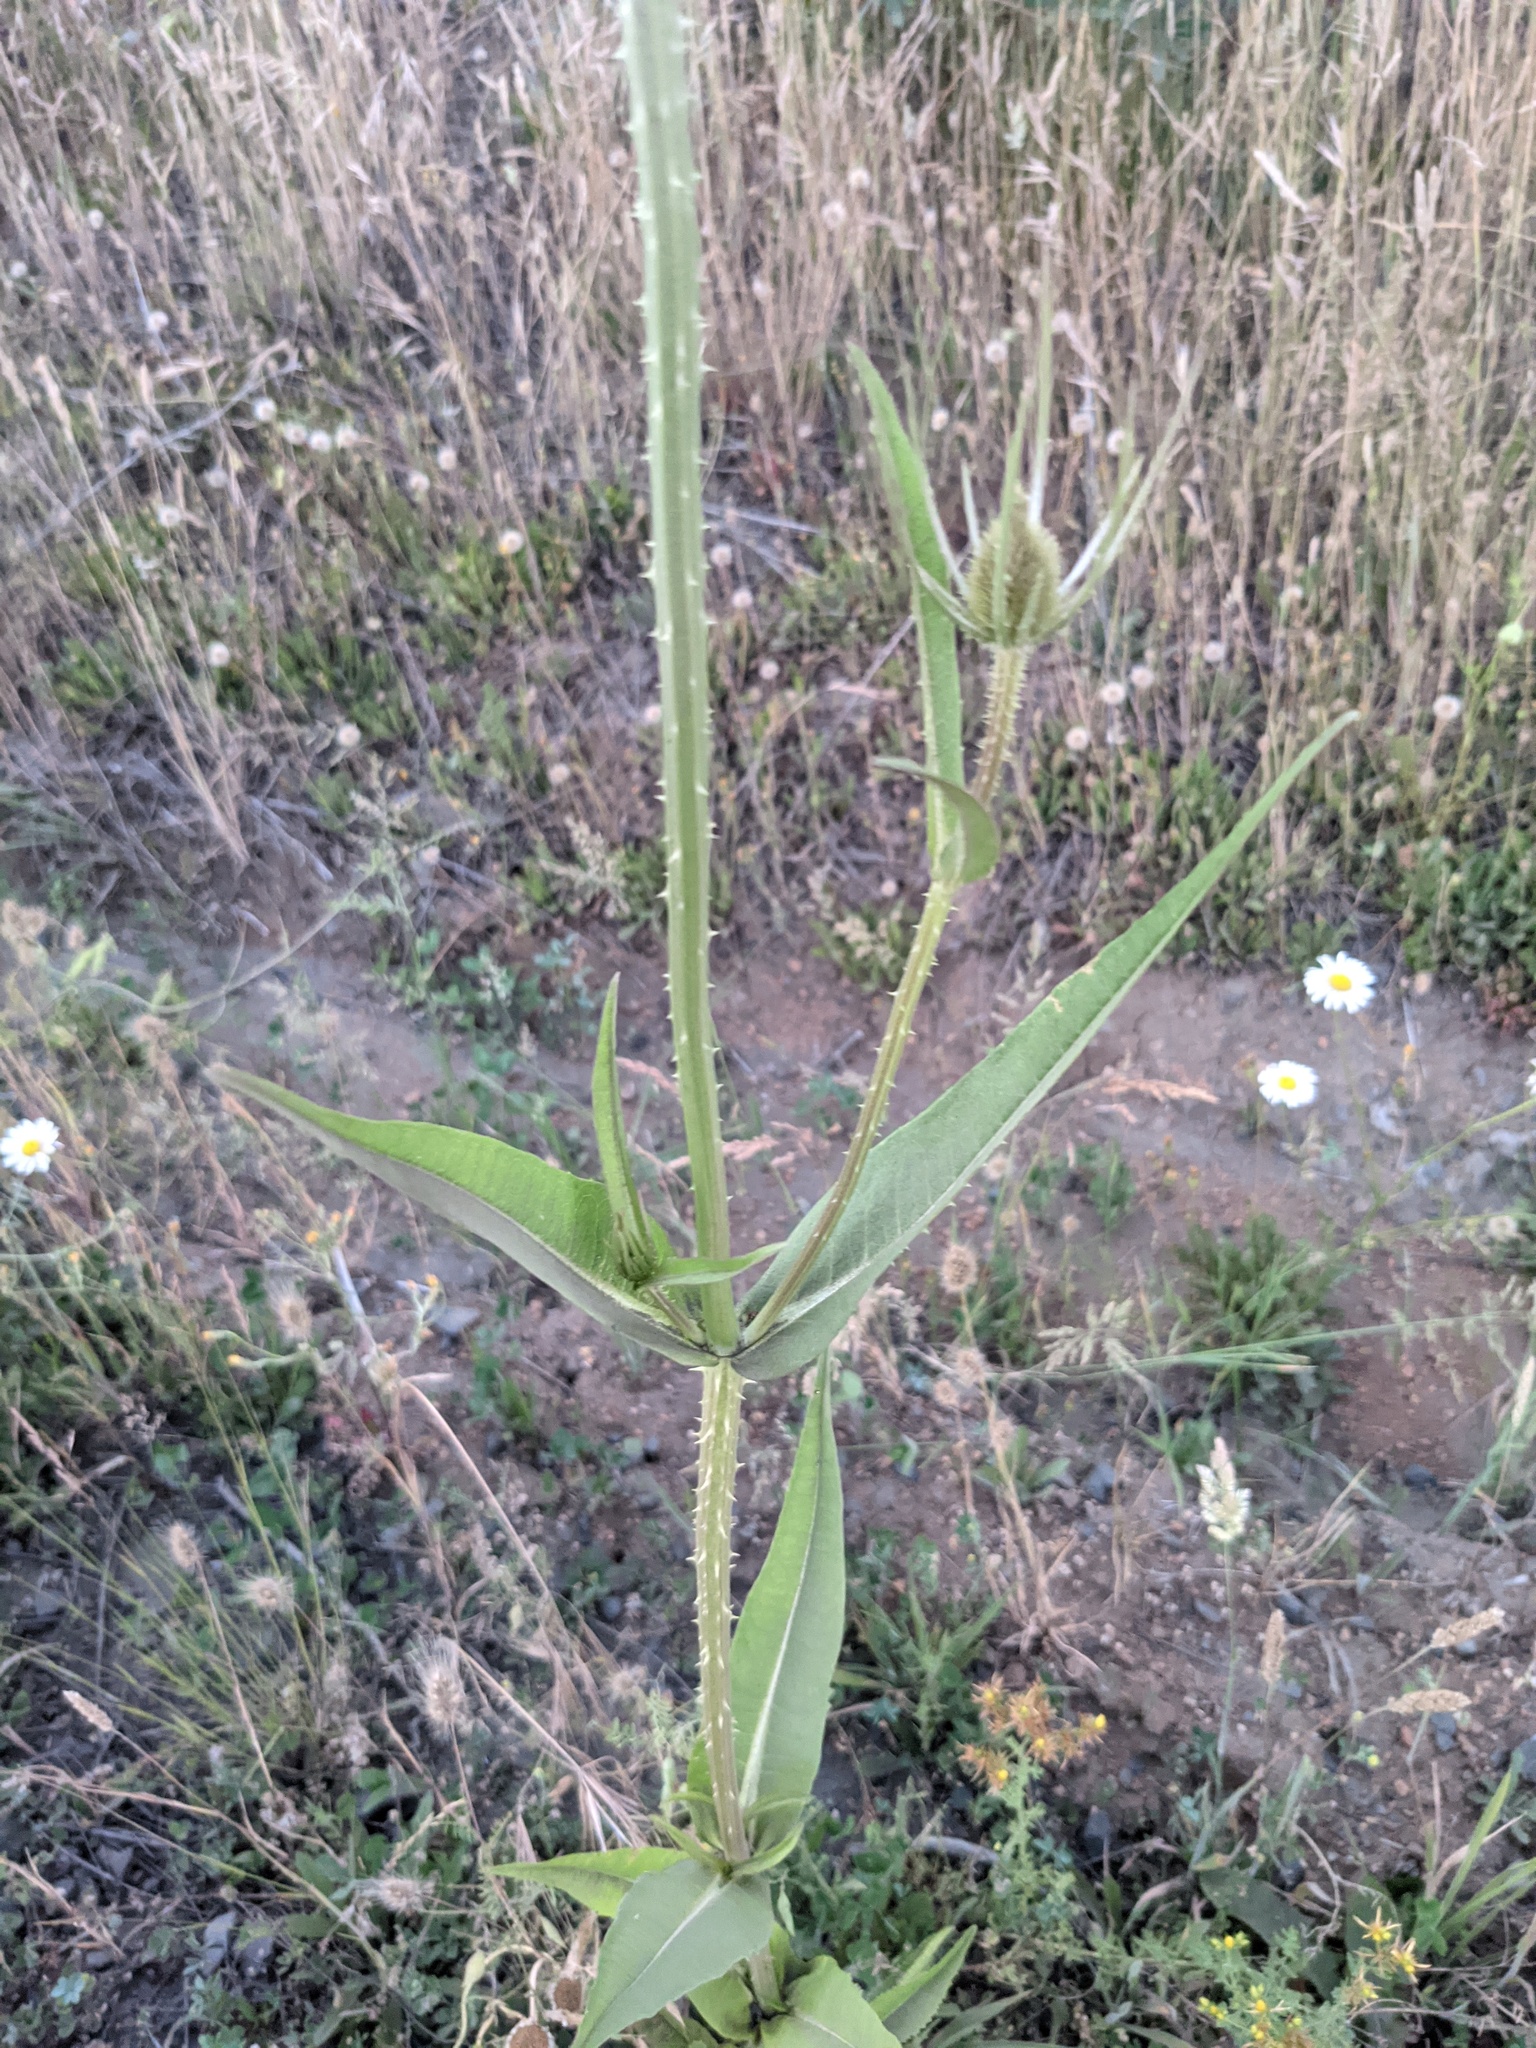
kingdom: Plantae
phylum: Tracheophyta
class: Magnoliopsida
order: Dipsacales
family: Caprifoliaceae
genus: Dipsacus
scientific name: Dipsacus fullonum
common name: Teasel
